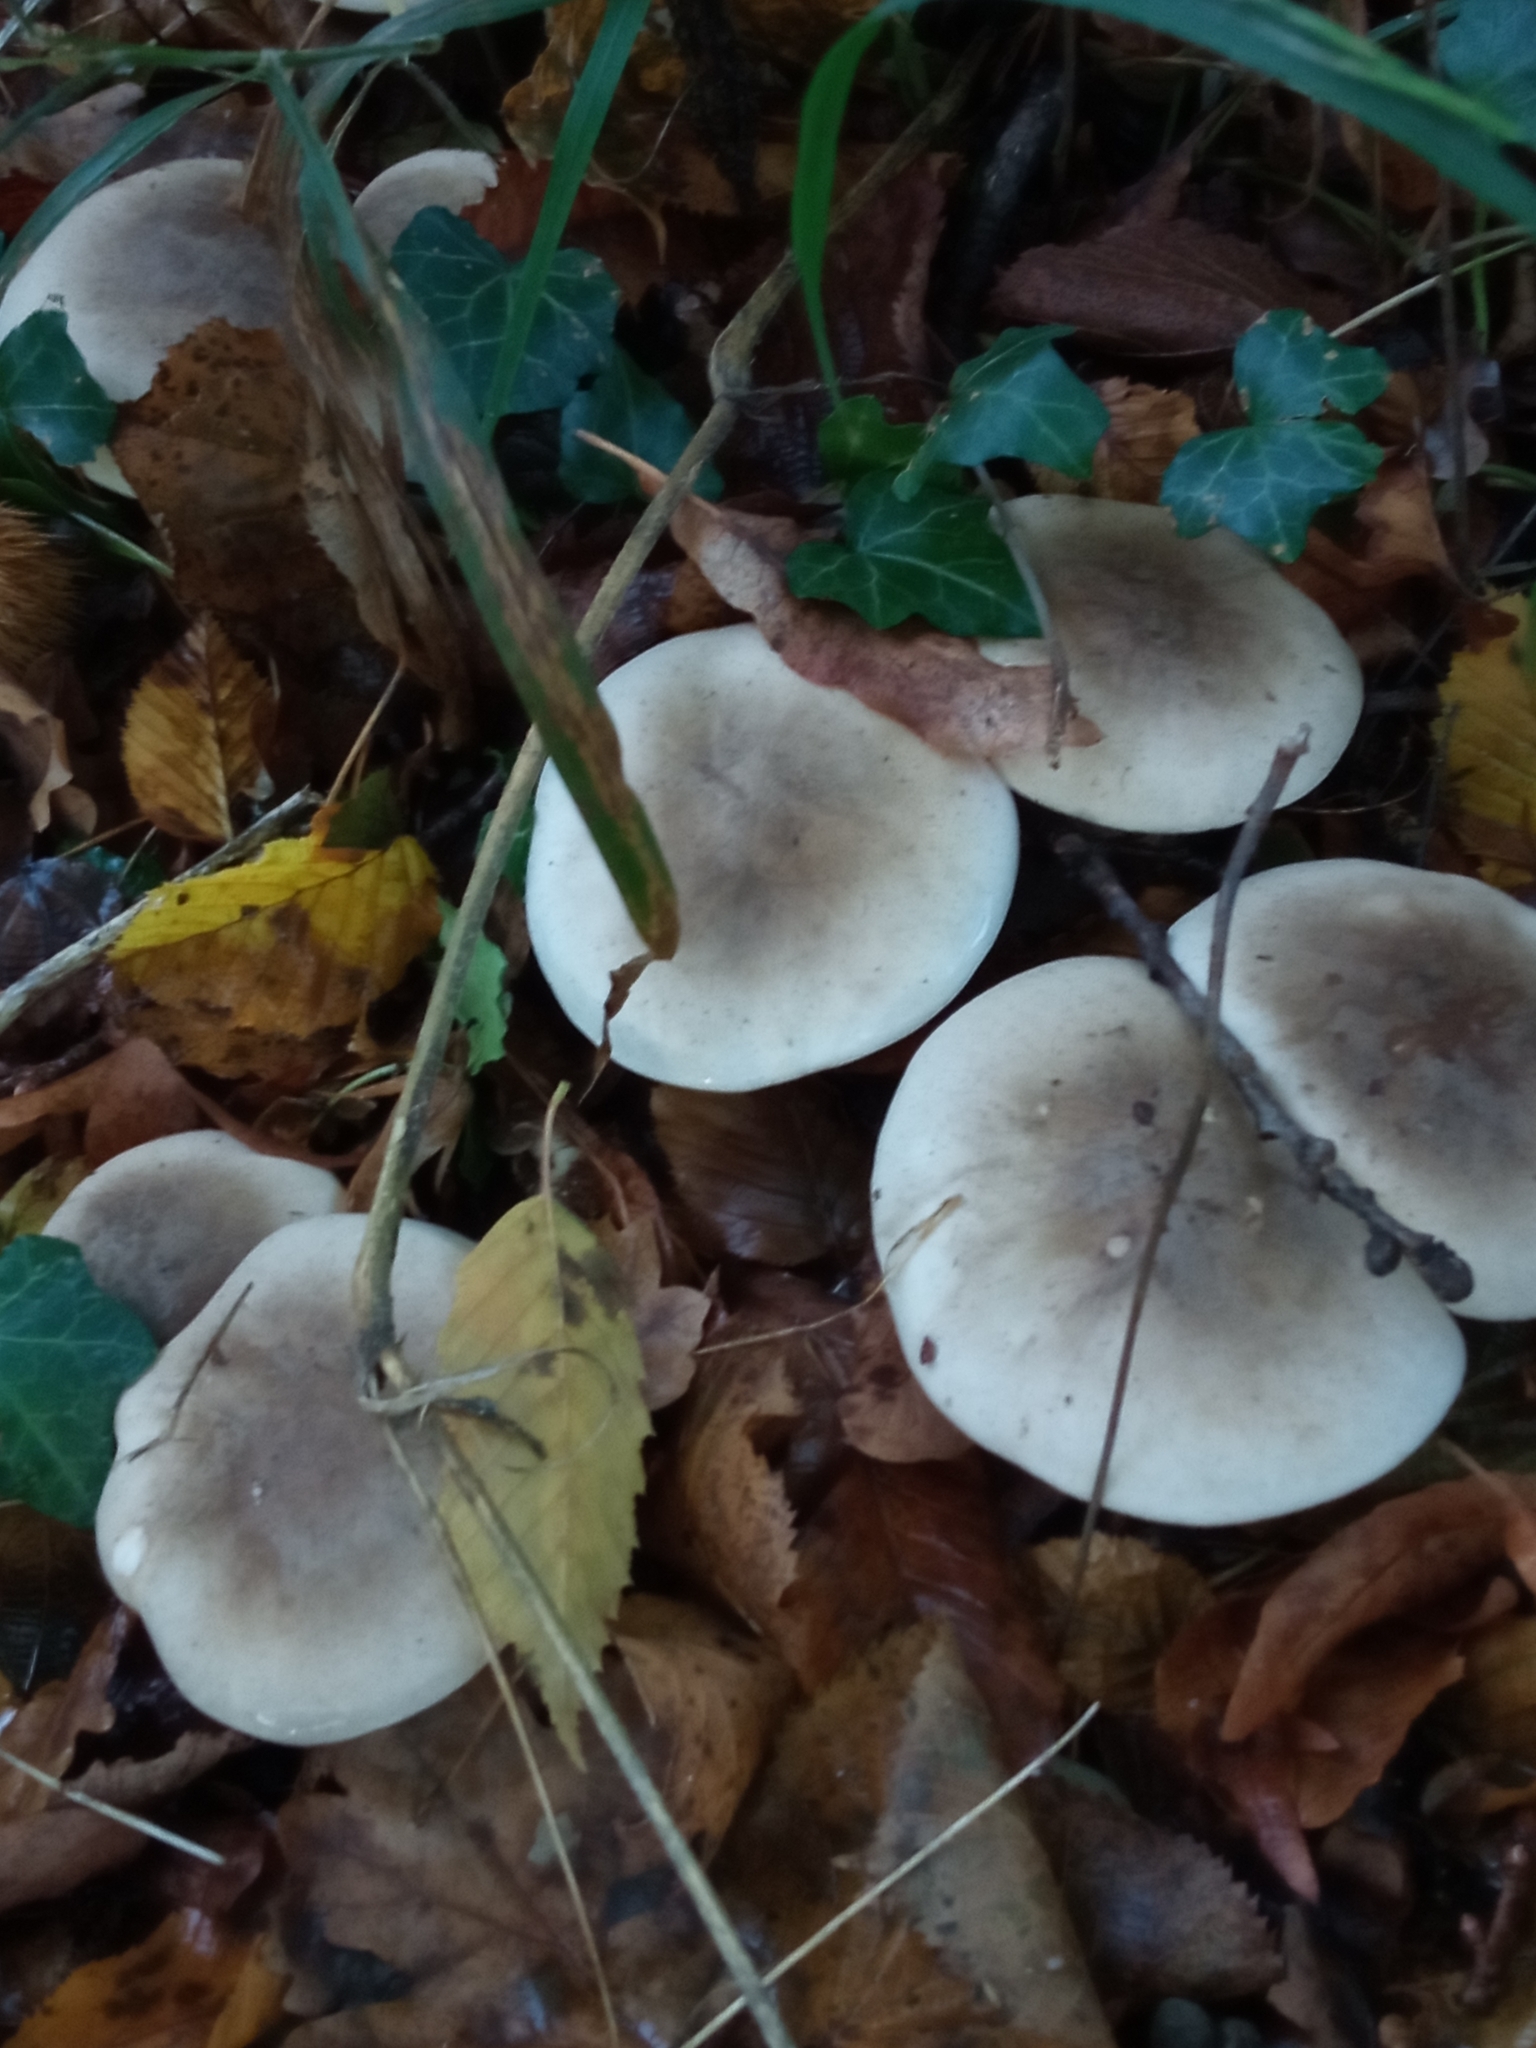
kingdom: Fungi
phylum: Basidiomycota
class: Agaricomycetes
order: Agaricales
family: Tricholomataceae
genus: Clitocybe
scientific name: Clitocybe nebularis
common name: Clouded agaric
